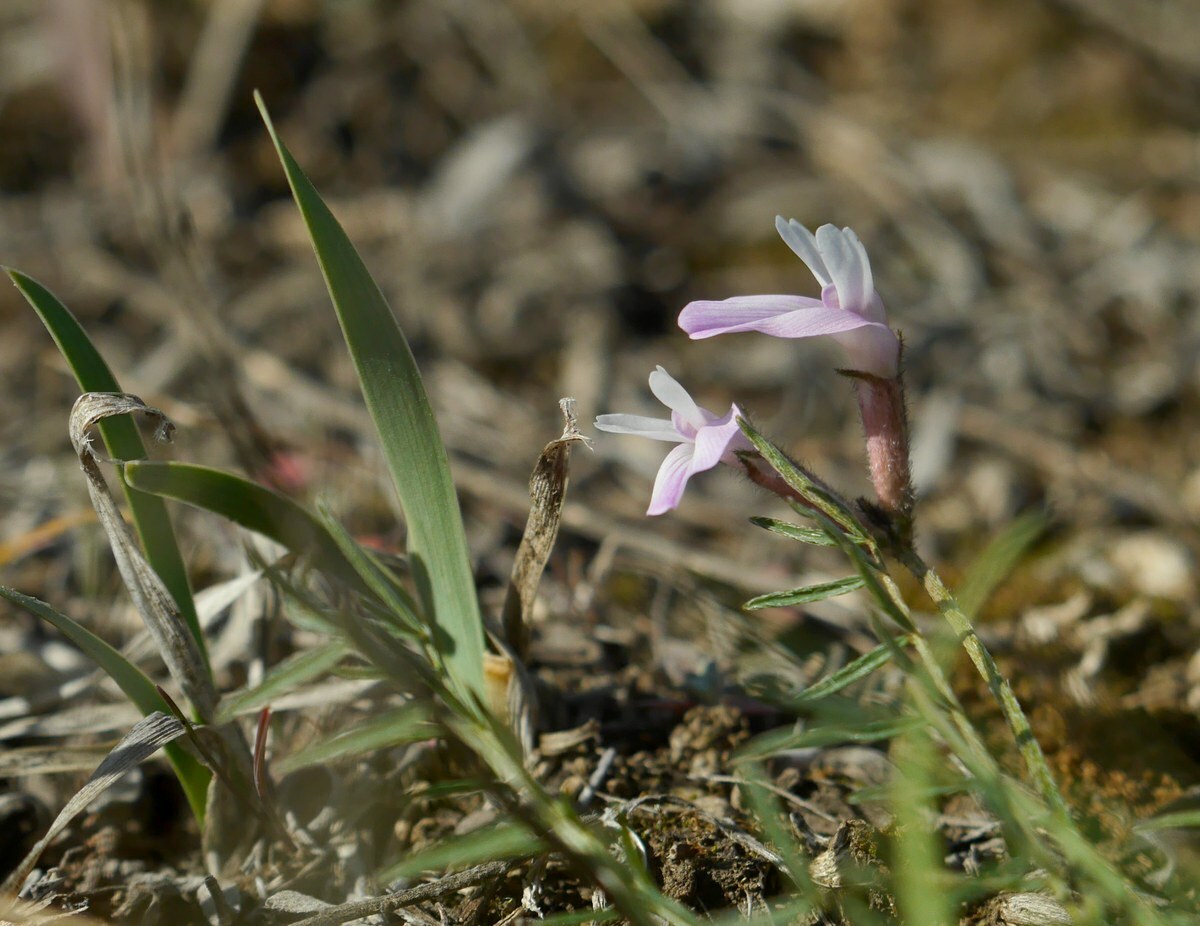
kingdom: Plantae
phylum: Tracheophyta
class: Magnoliopsida
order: Fabales
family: Fabaceae
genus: Astragalus
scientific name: Astragalus corniculatus
